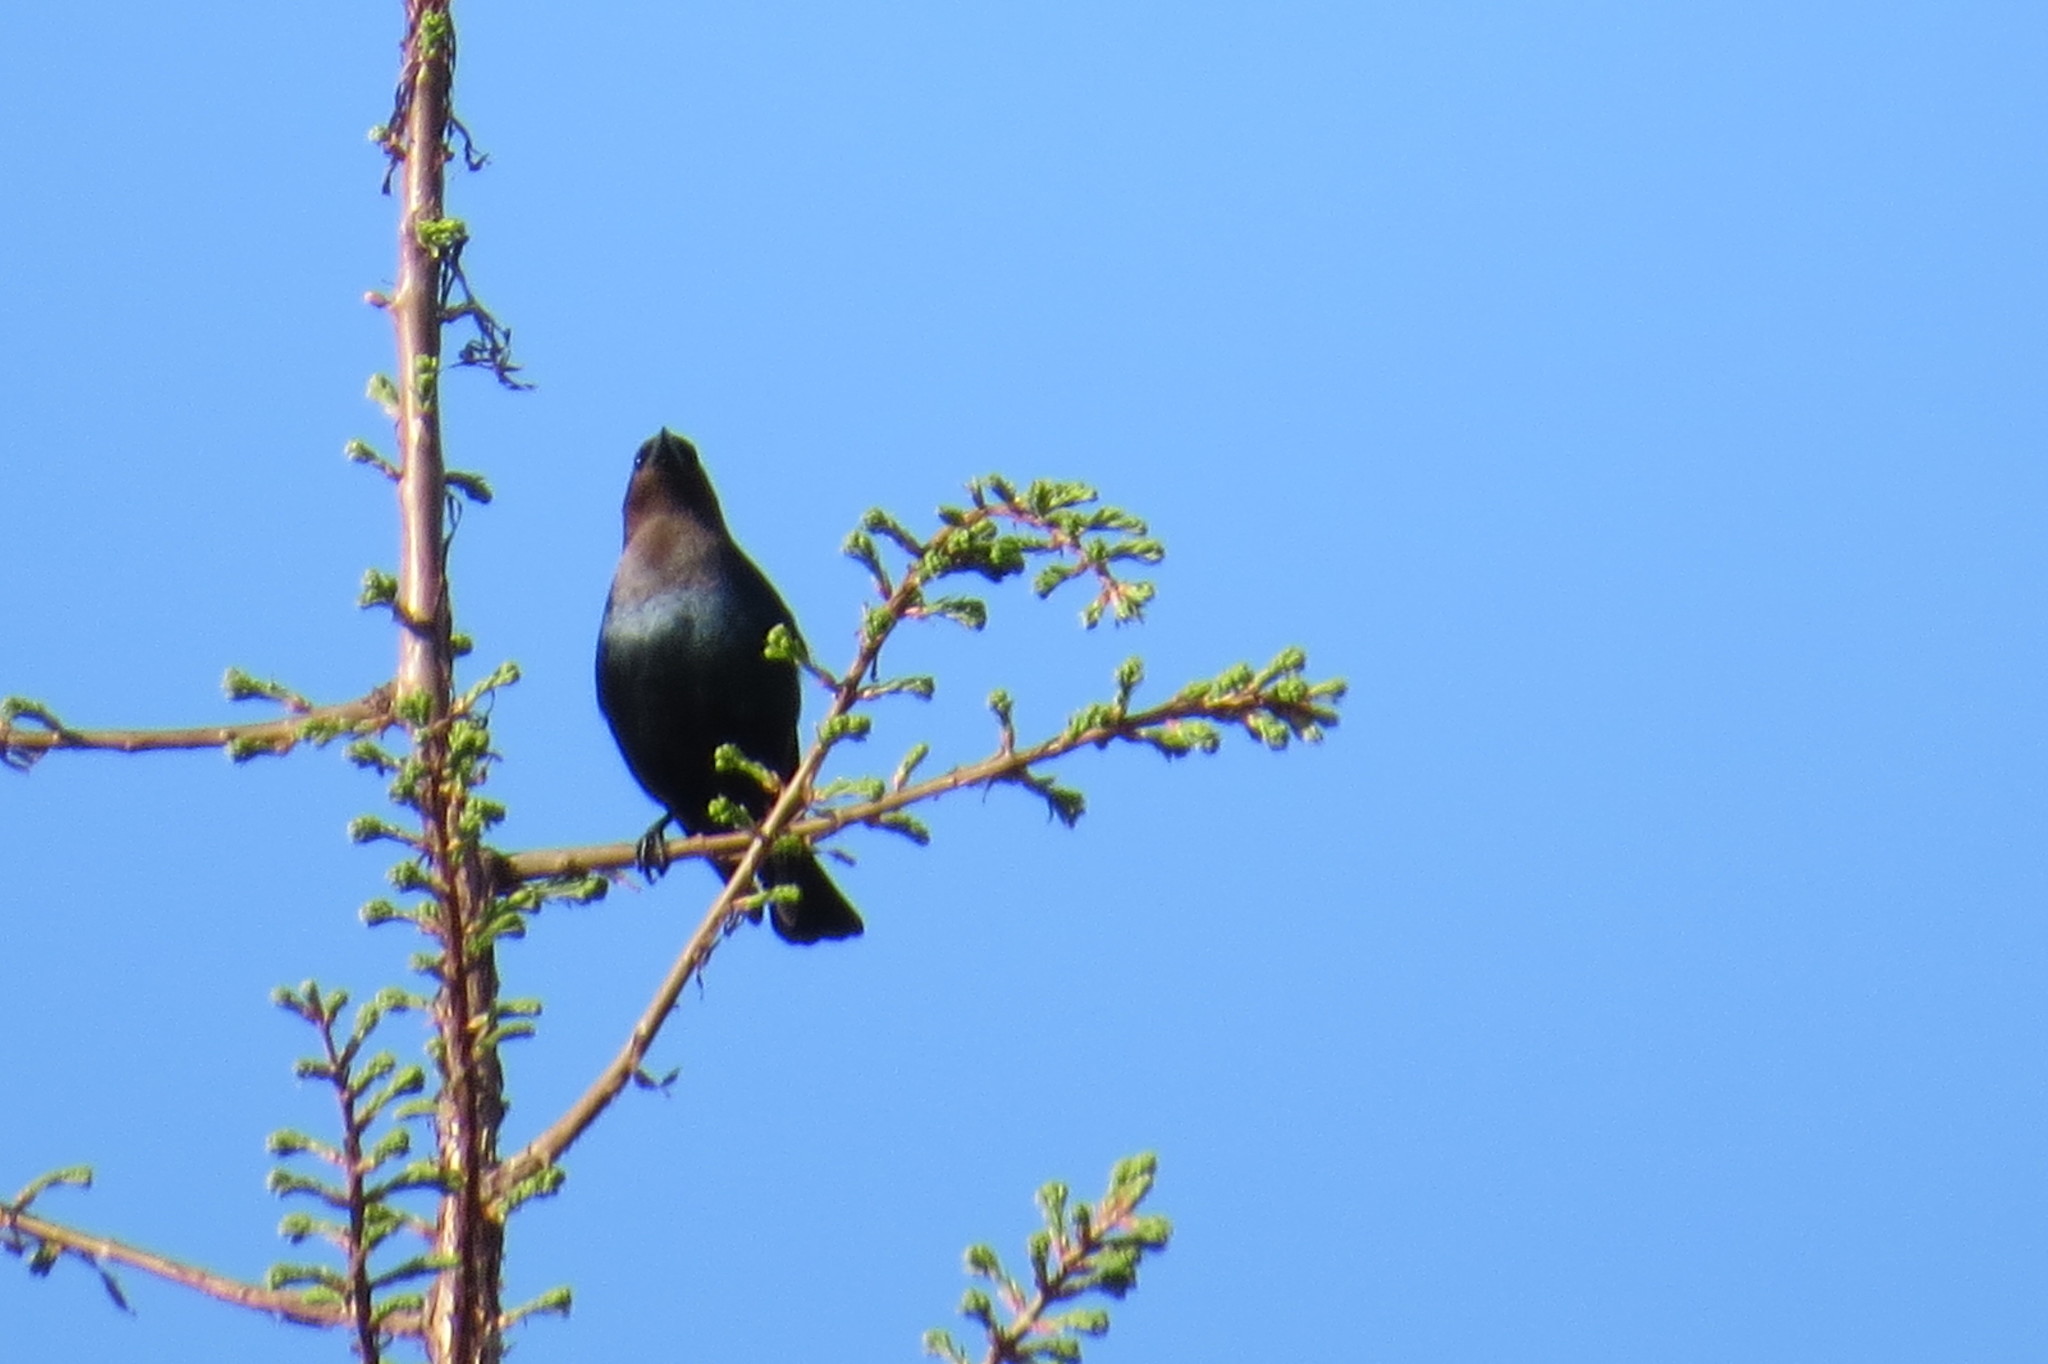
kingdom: Animalia
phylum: Chordata
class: Aves
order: Passeriformes
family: Icteridae
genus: Molothrus
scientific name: Molothrus ater
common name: Brown-headed cowbird
